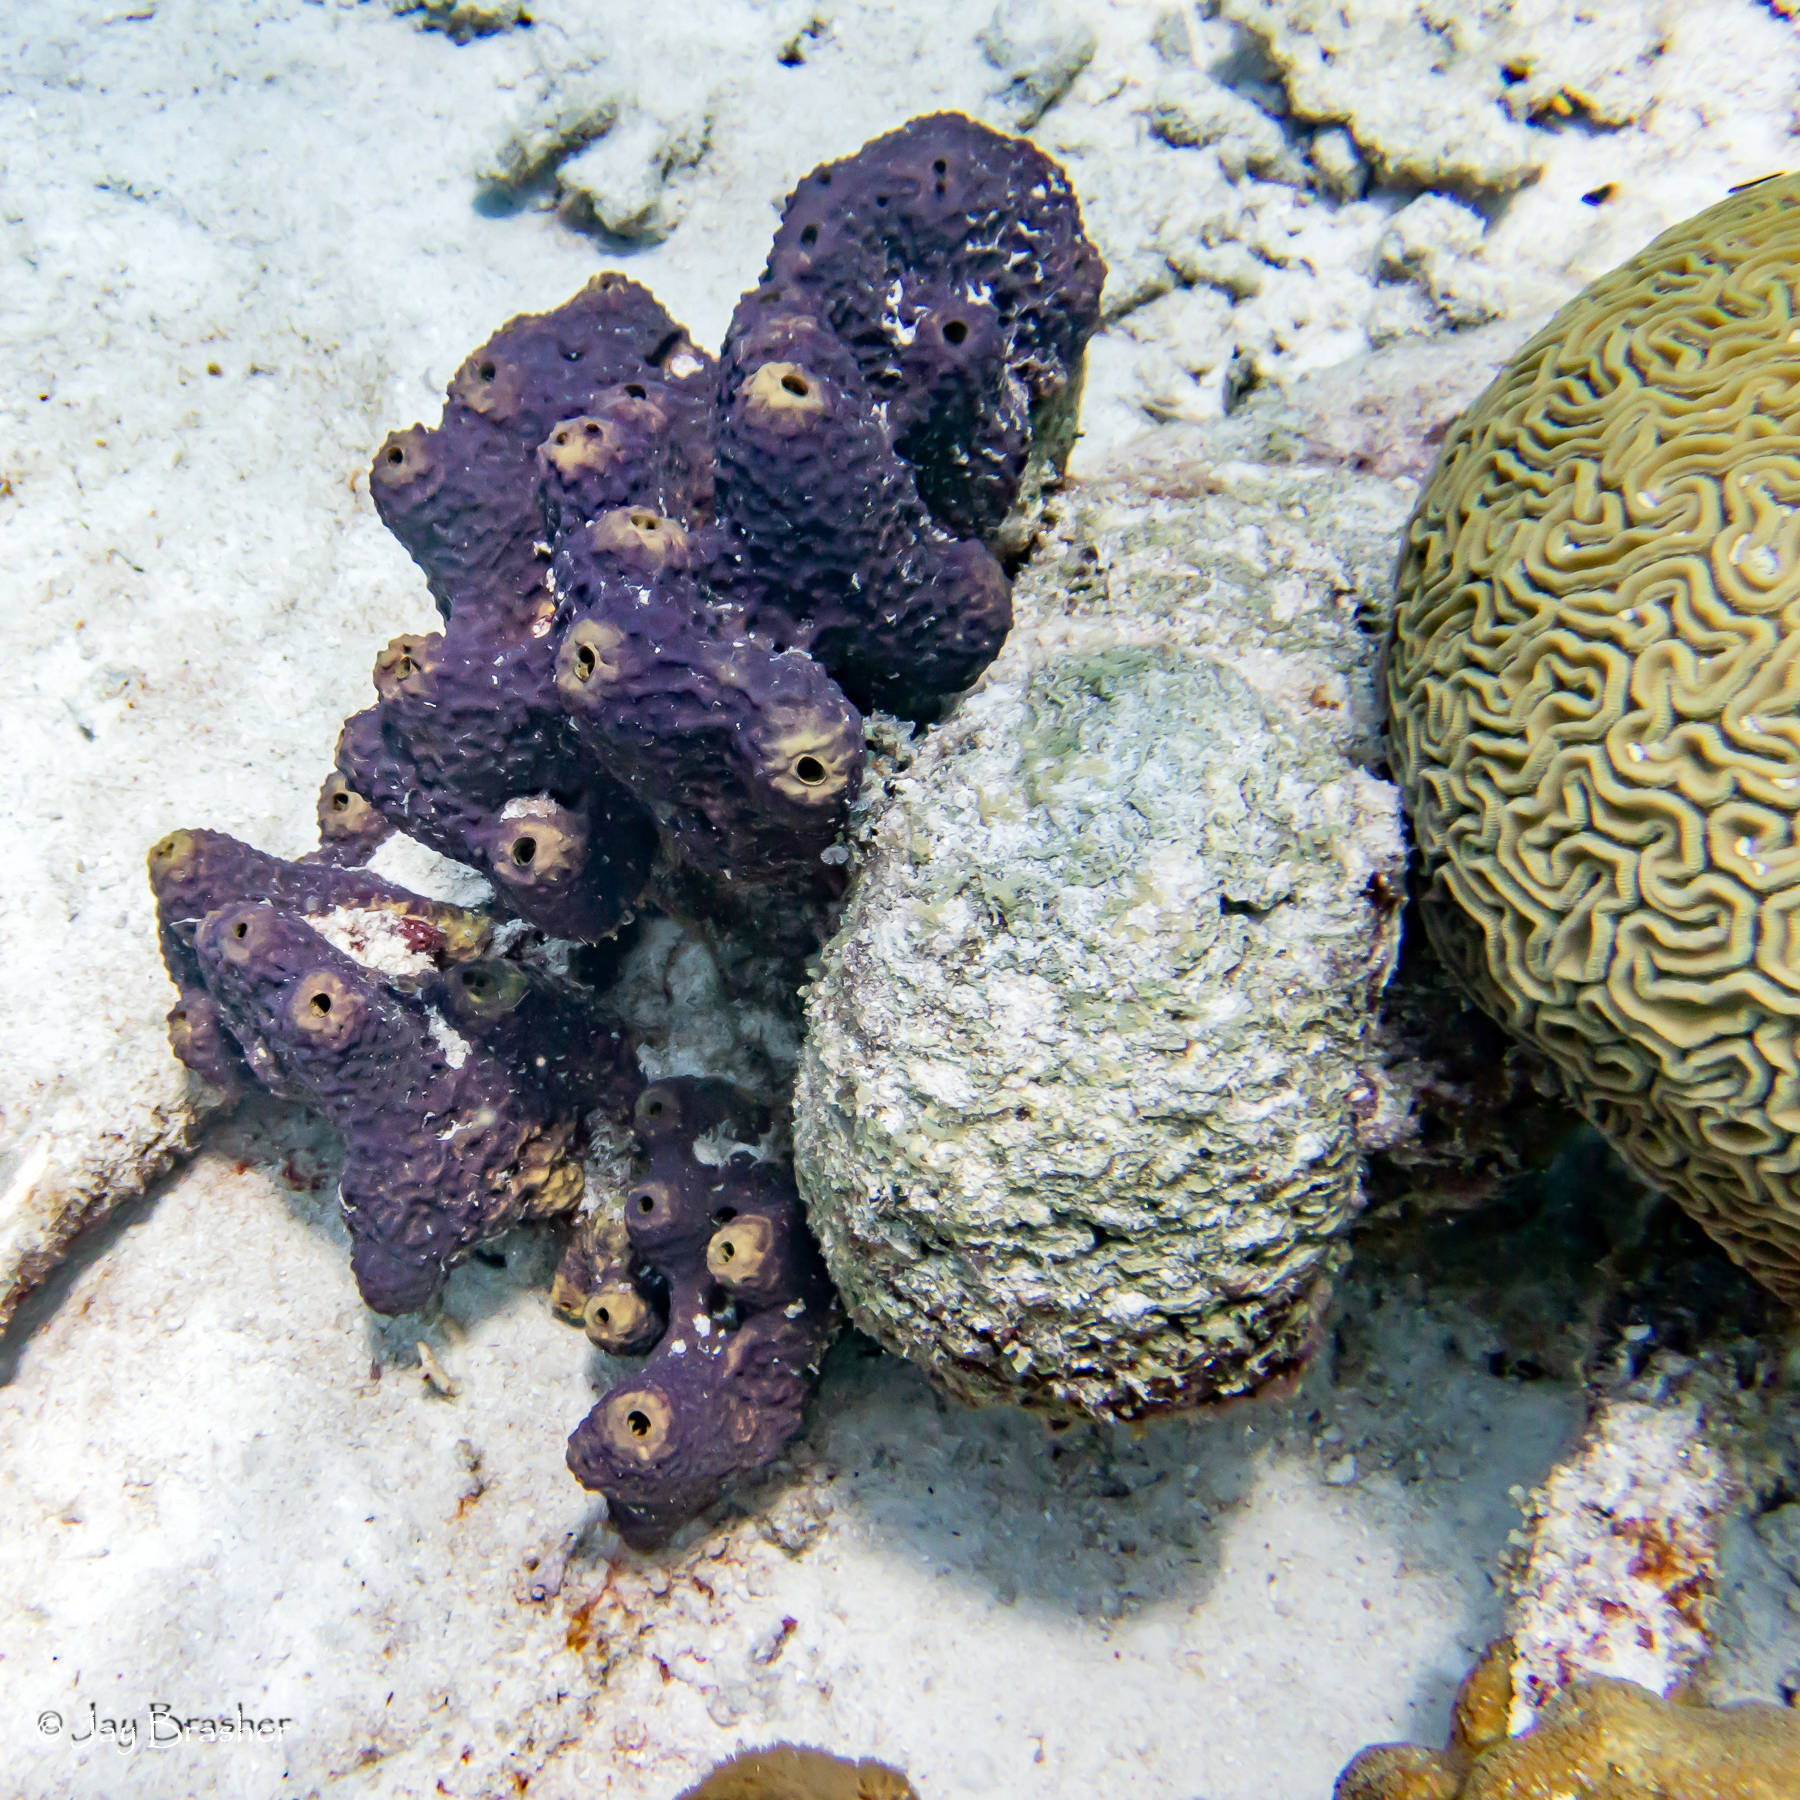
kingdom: Animalia
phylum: Cnidaria
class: Anthozoa
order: Scleractinia
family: Faviidae
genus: Diploria
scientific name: Diploria labyrinthiformis
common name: Grooved brain coral
